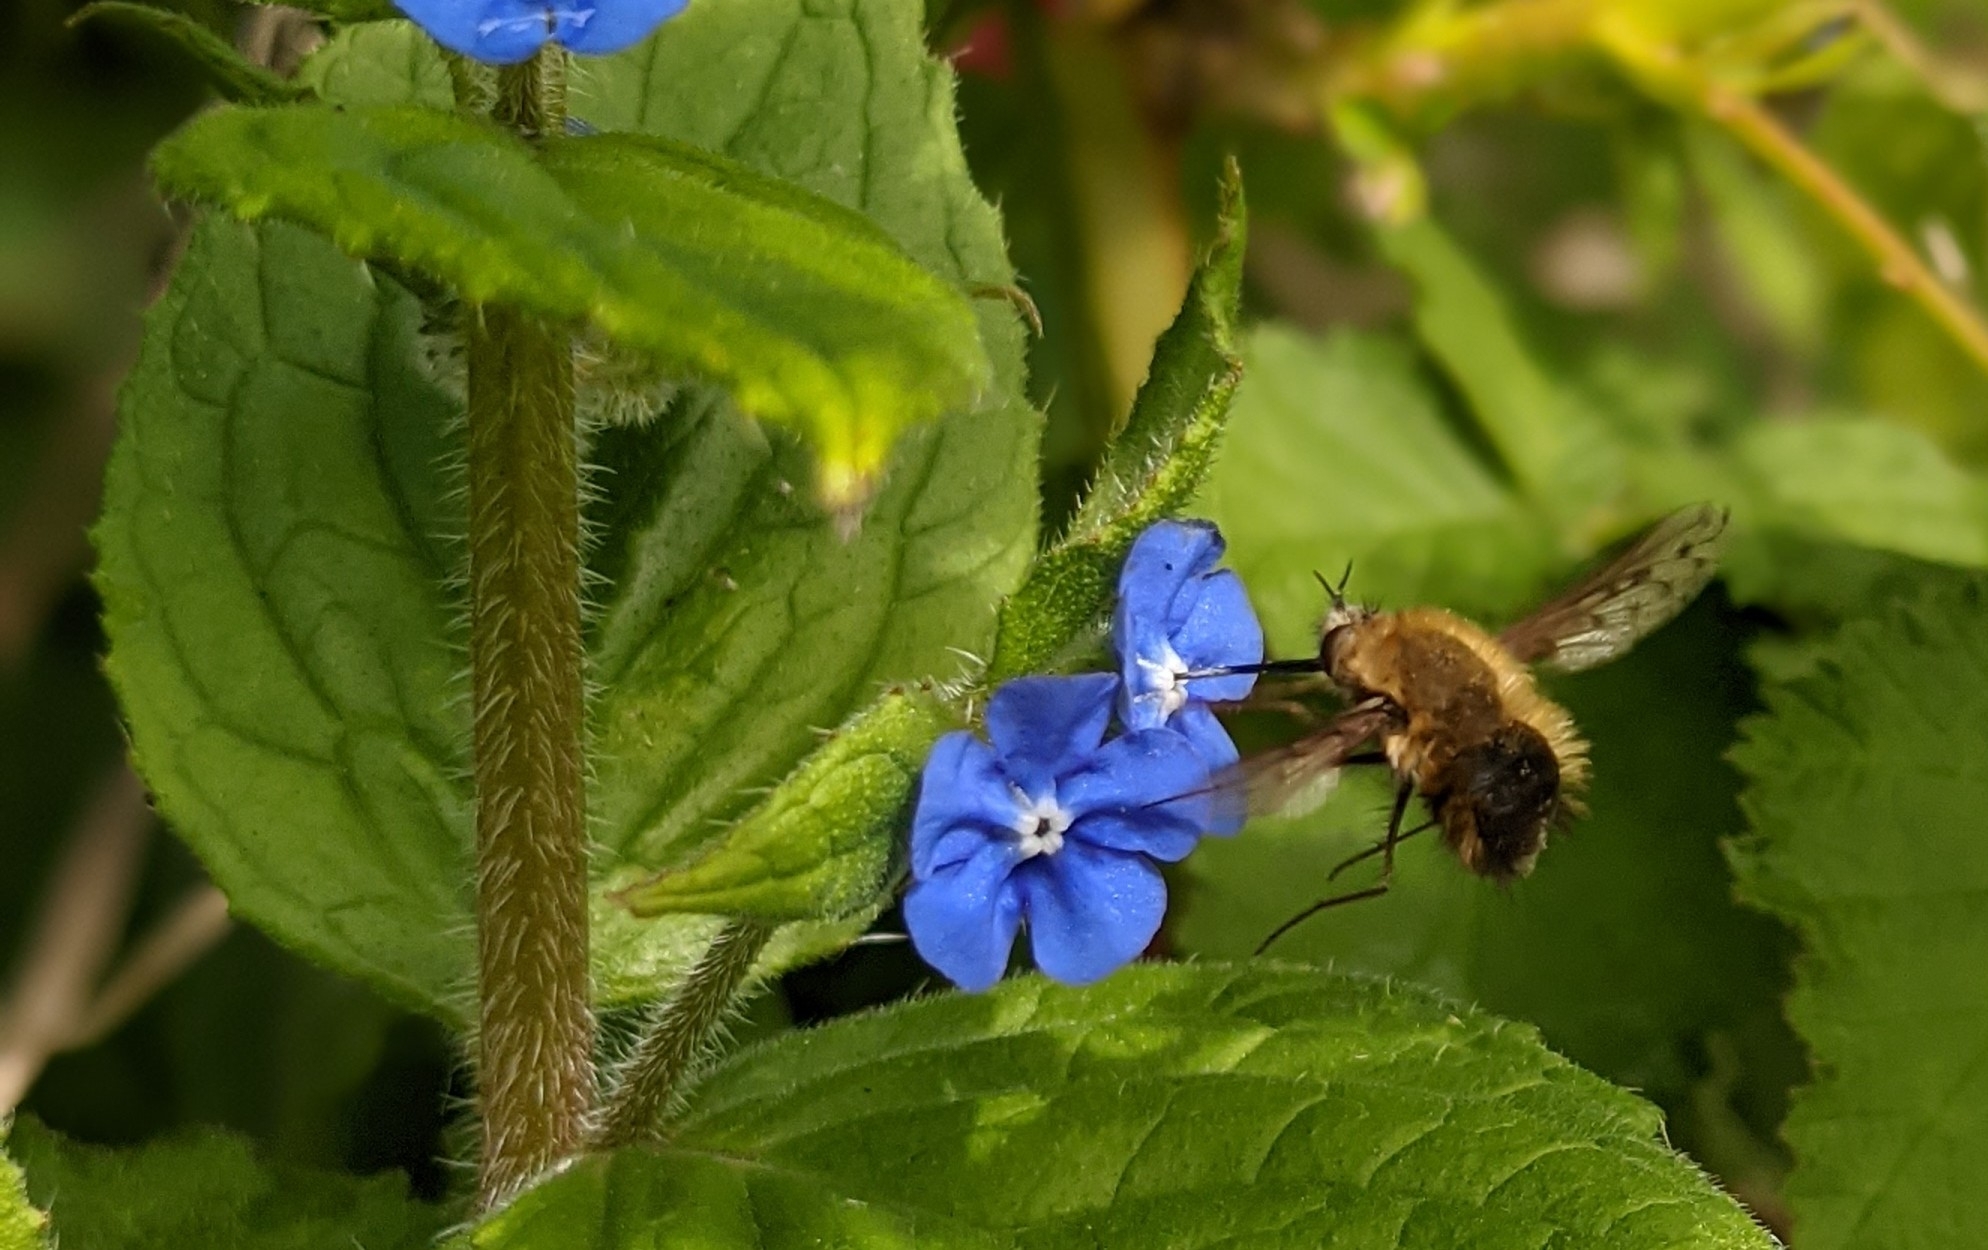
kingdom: Animalia
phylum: Arthropoda
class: Insecta
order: Diptera
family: Bombyliidae
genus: Bombylius
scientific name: Bombylius discolor
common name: Dotted bee-fly
